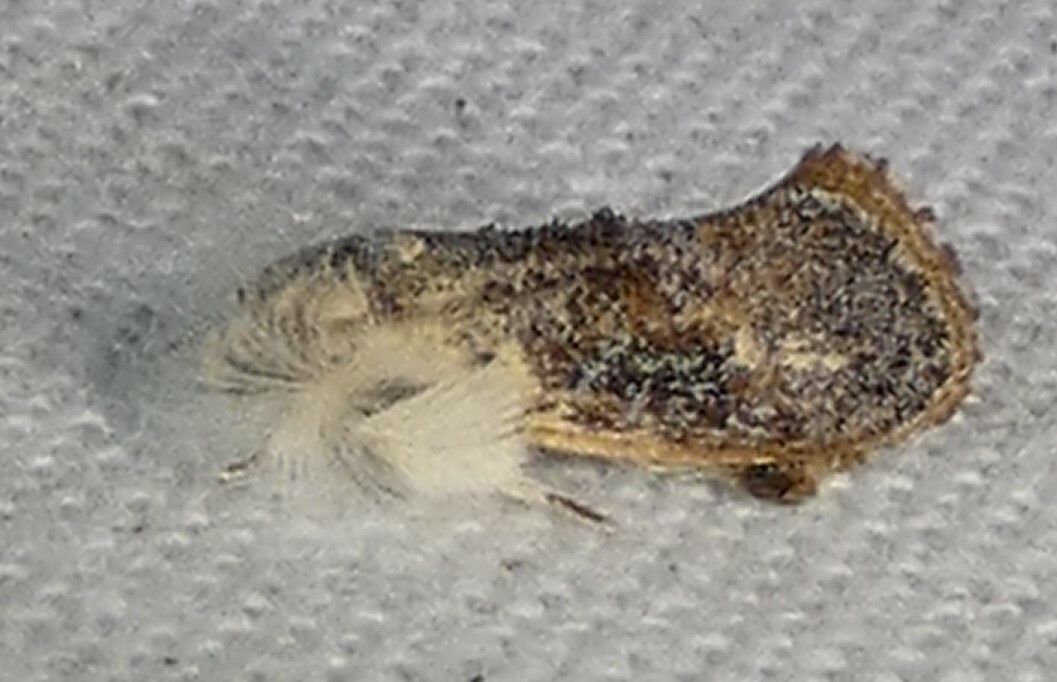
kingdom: Animalia
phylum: Arthropoda
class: Insecta
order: Lepidoptera
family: Tineidae
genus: Acrolophus
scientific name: Acrolophus mycetophagus
